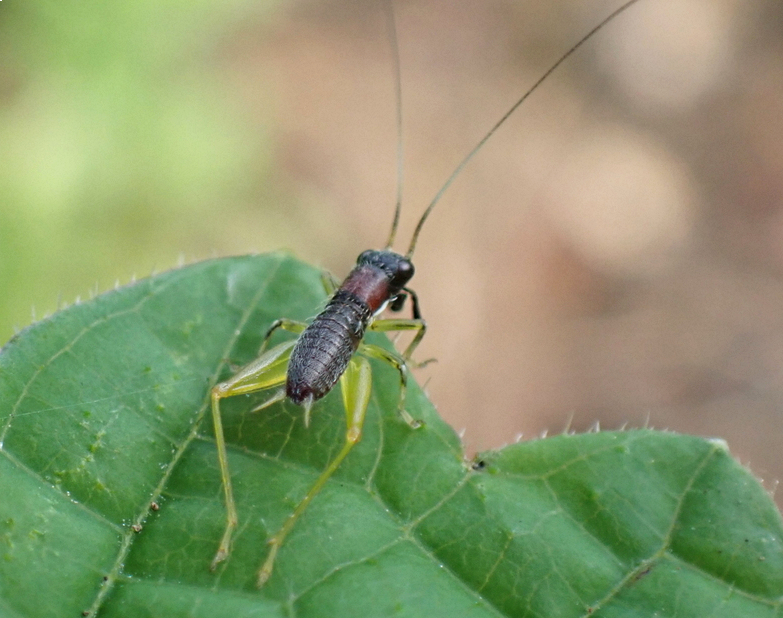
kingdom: Animalia
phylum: Arthropoda
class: Insecta
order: Orthoptera
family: Trigonidiidae
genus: Phyllopalpus
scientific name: Phyllopalpus pulchellus
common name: Handsome trig
